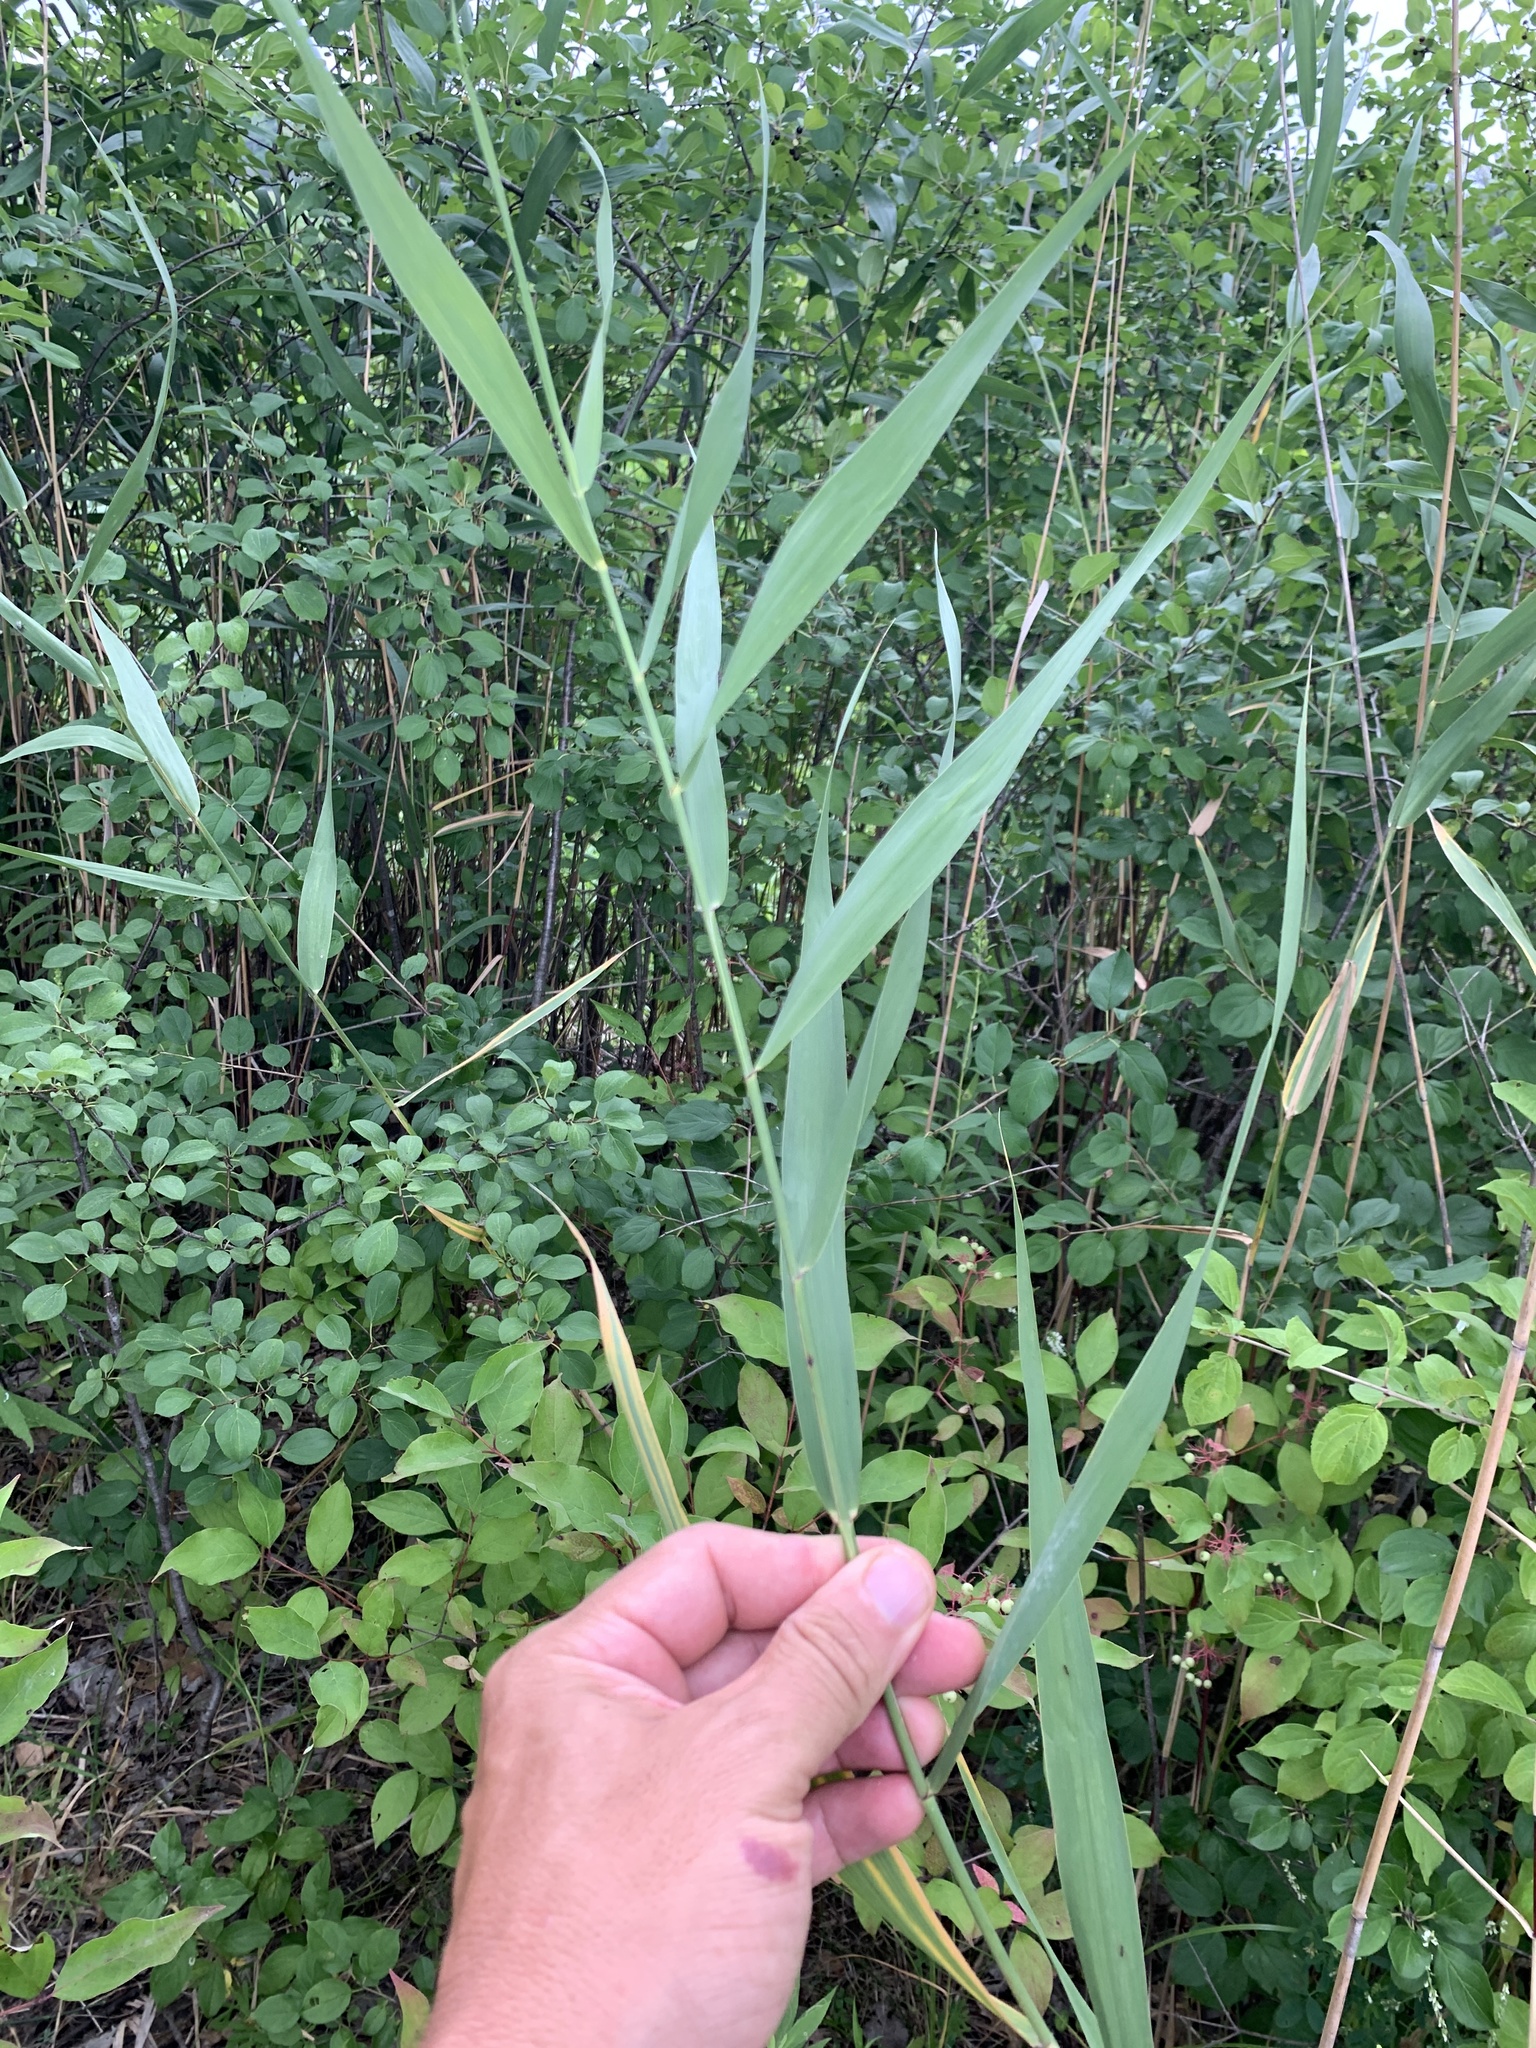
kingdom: Plantae
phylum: Tracheophyta
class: Liliopsida
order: Poales
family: Poaceae
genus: Phragmites
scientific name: Phragmites australis
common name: Common reed
